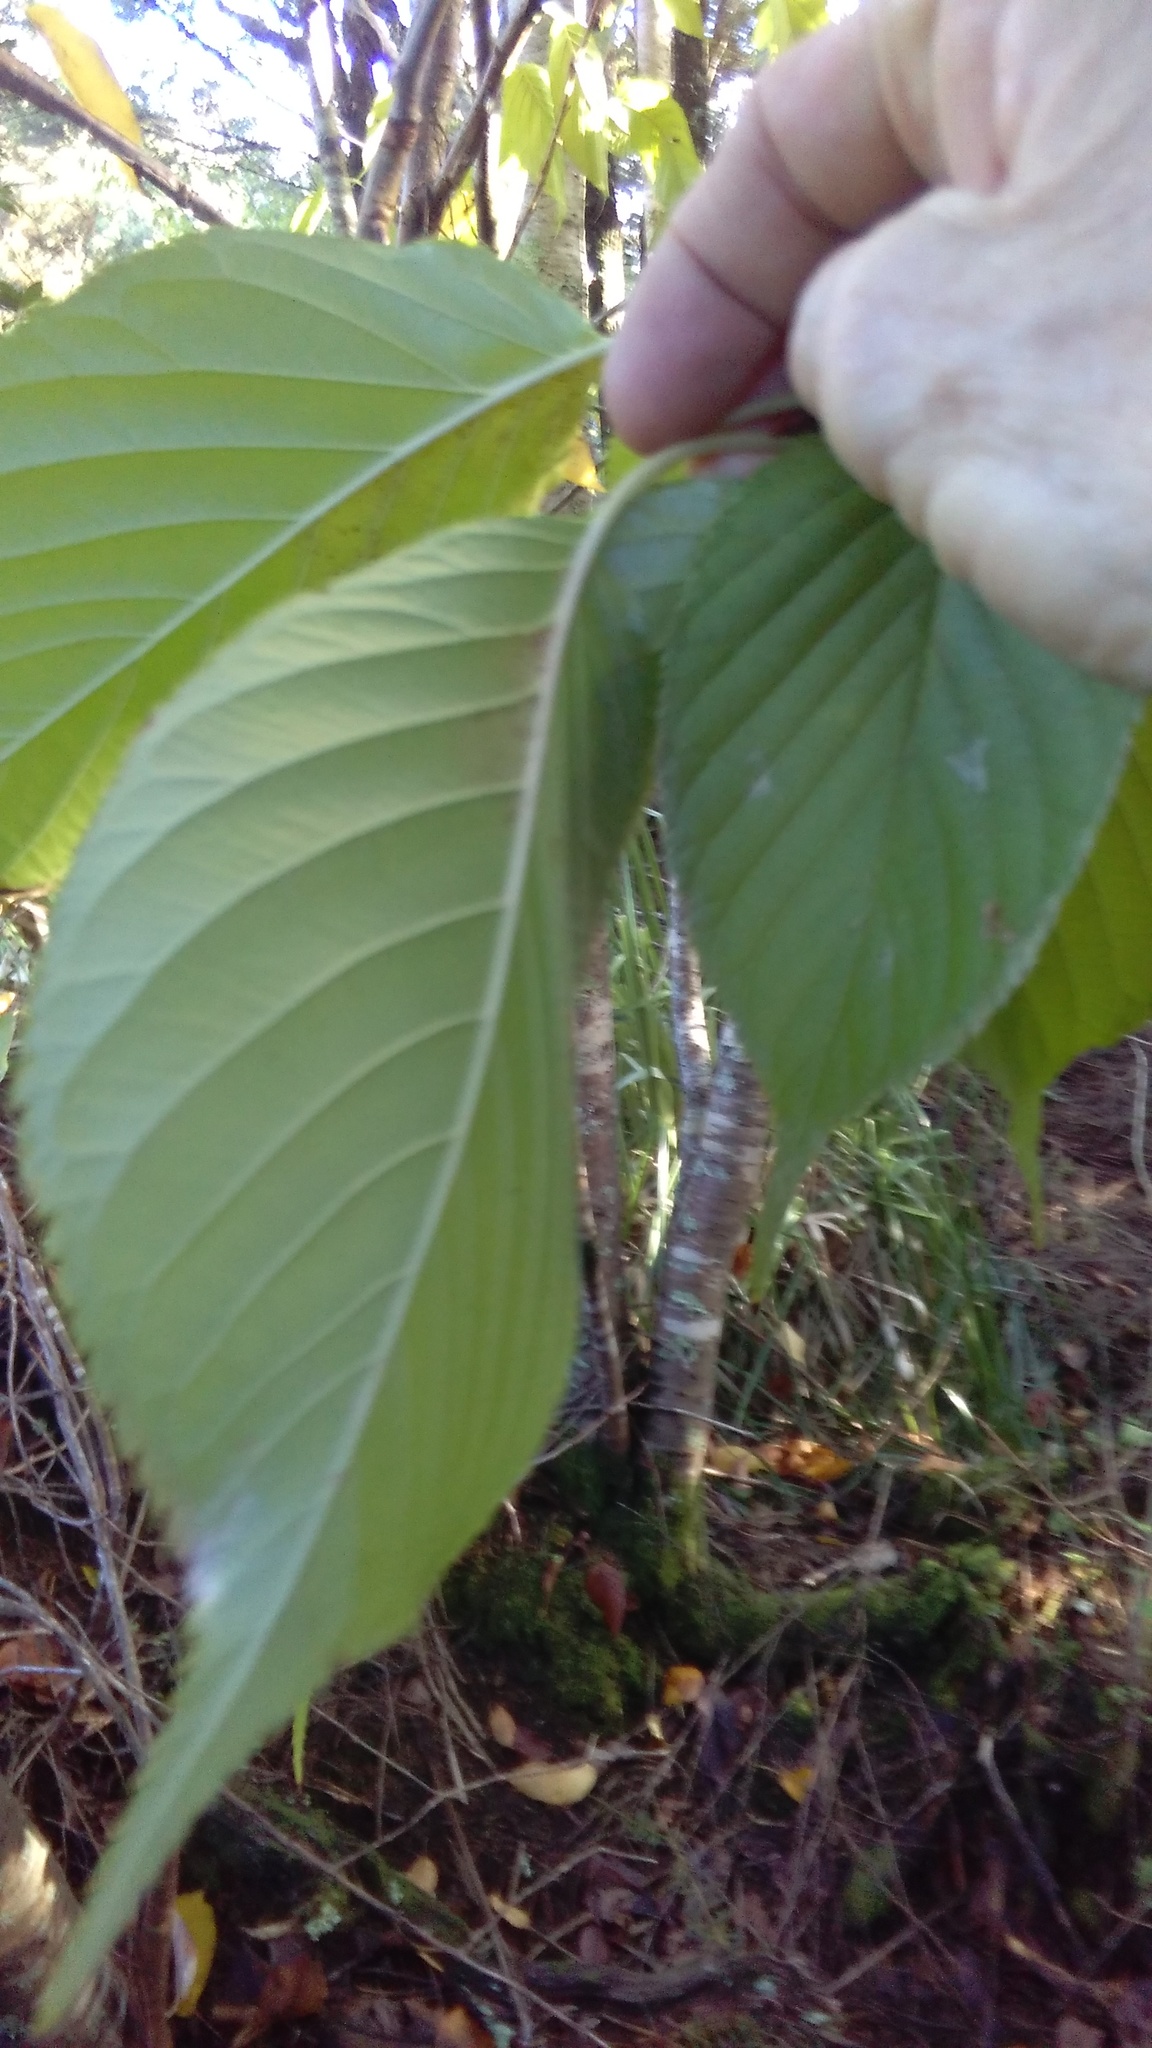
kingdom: Plantae
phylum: Tracheophyta
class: Magnoliopsida
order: Rosales
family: Rosaceae
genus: Prunus
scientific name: Prunus serrulata
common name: Japanese cherry
